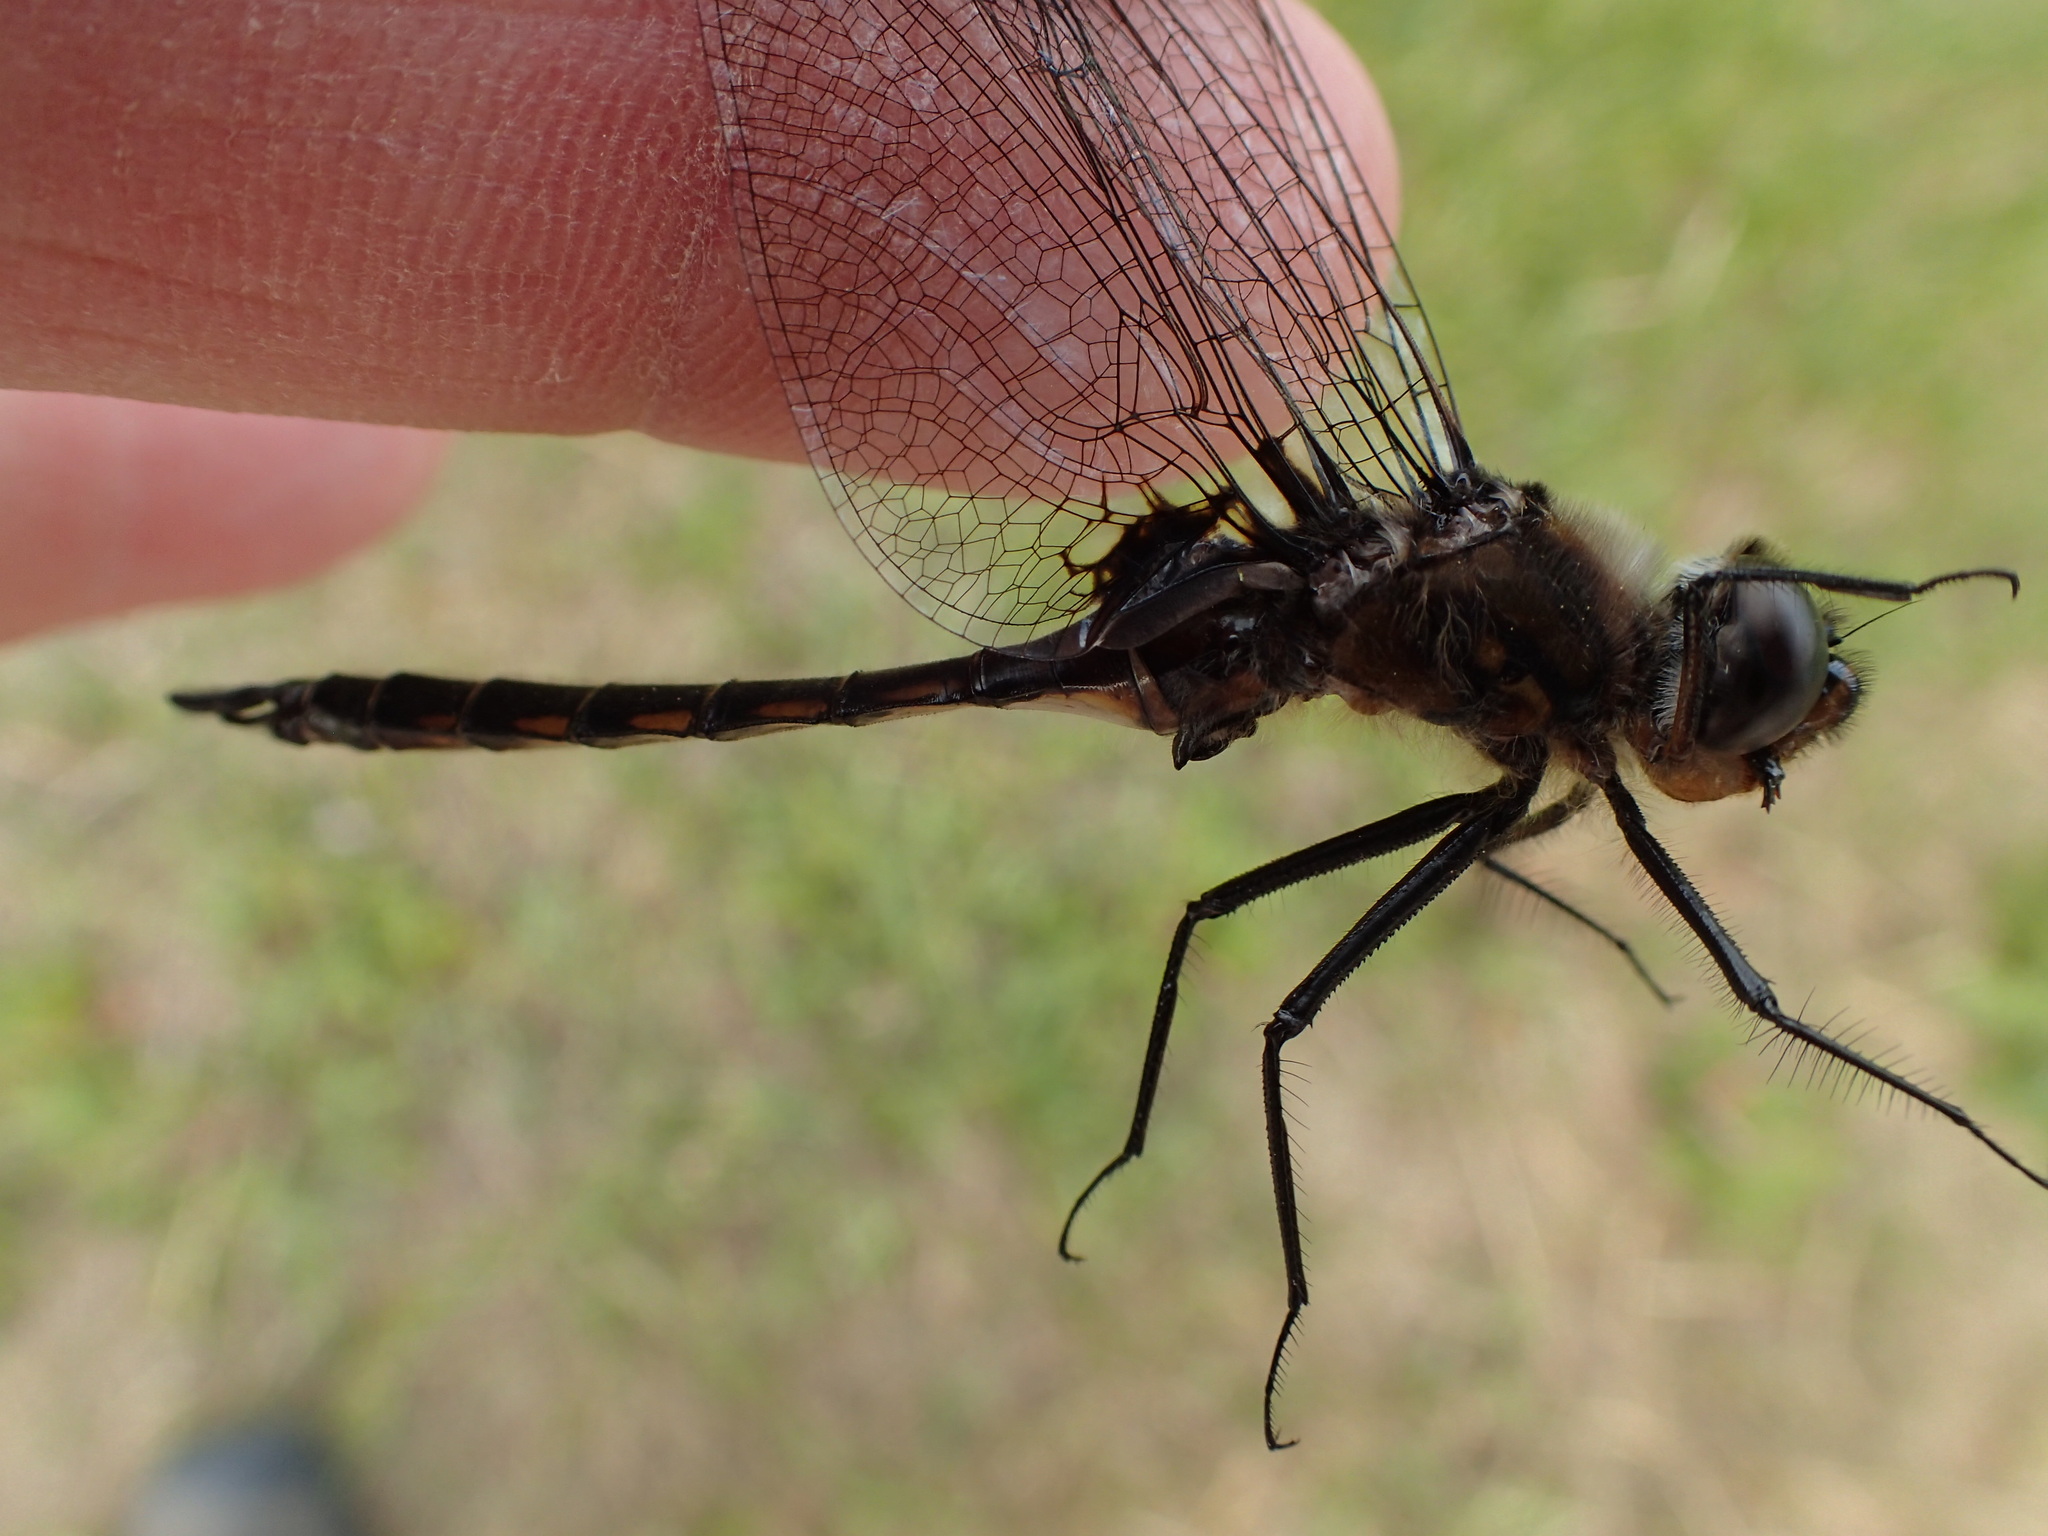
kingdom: Animalia
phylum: Arthropoda
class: Insecta
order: Odonata
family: Corduliidae
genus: Epitheca
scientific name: Epitheca spinigera
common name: Spiny baskettail
